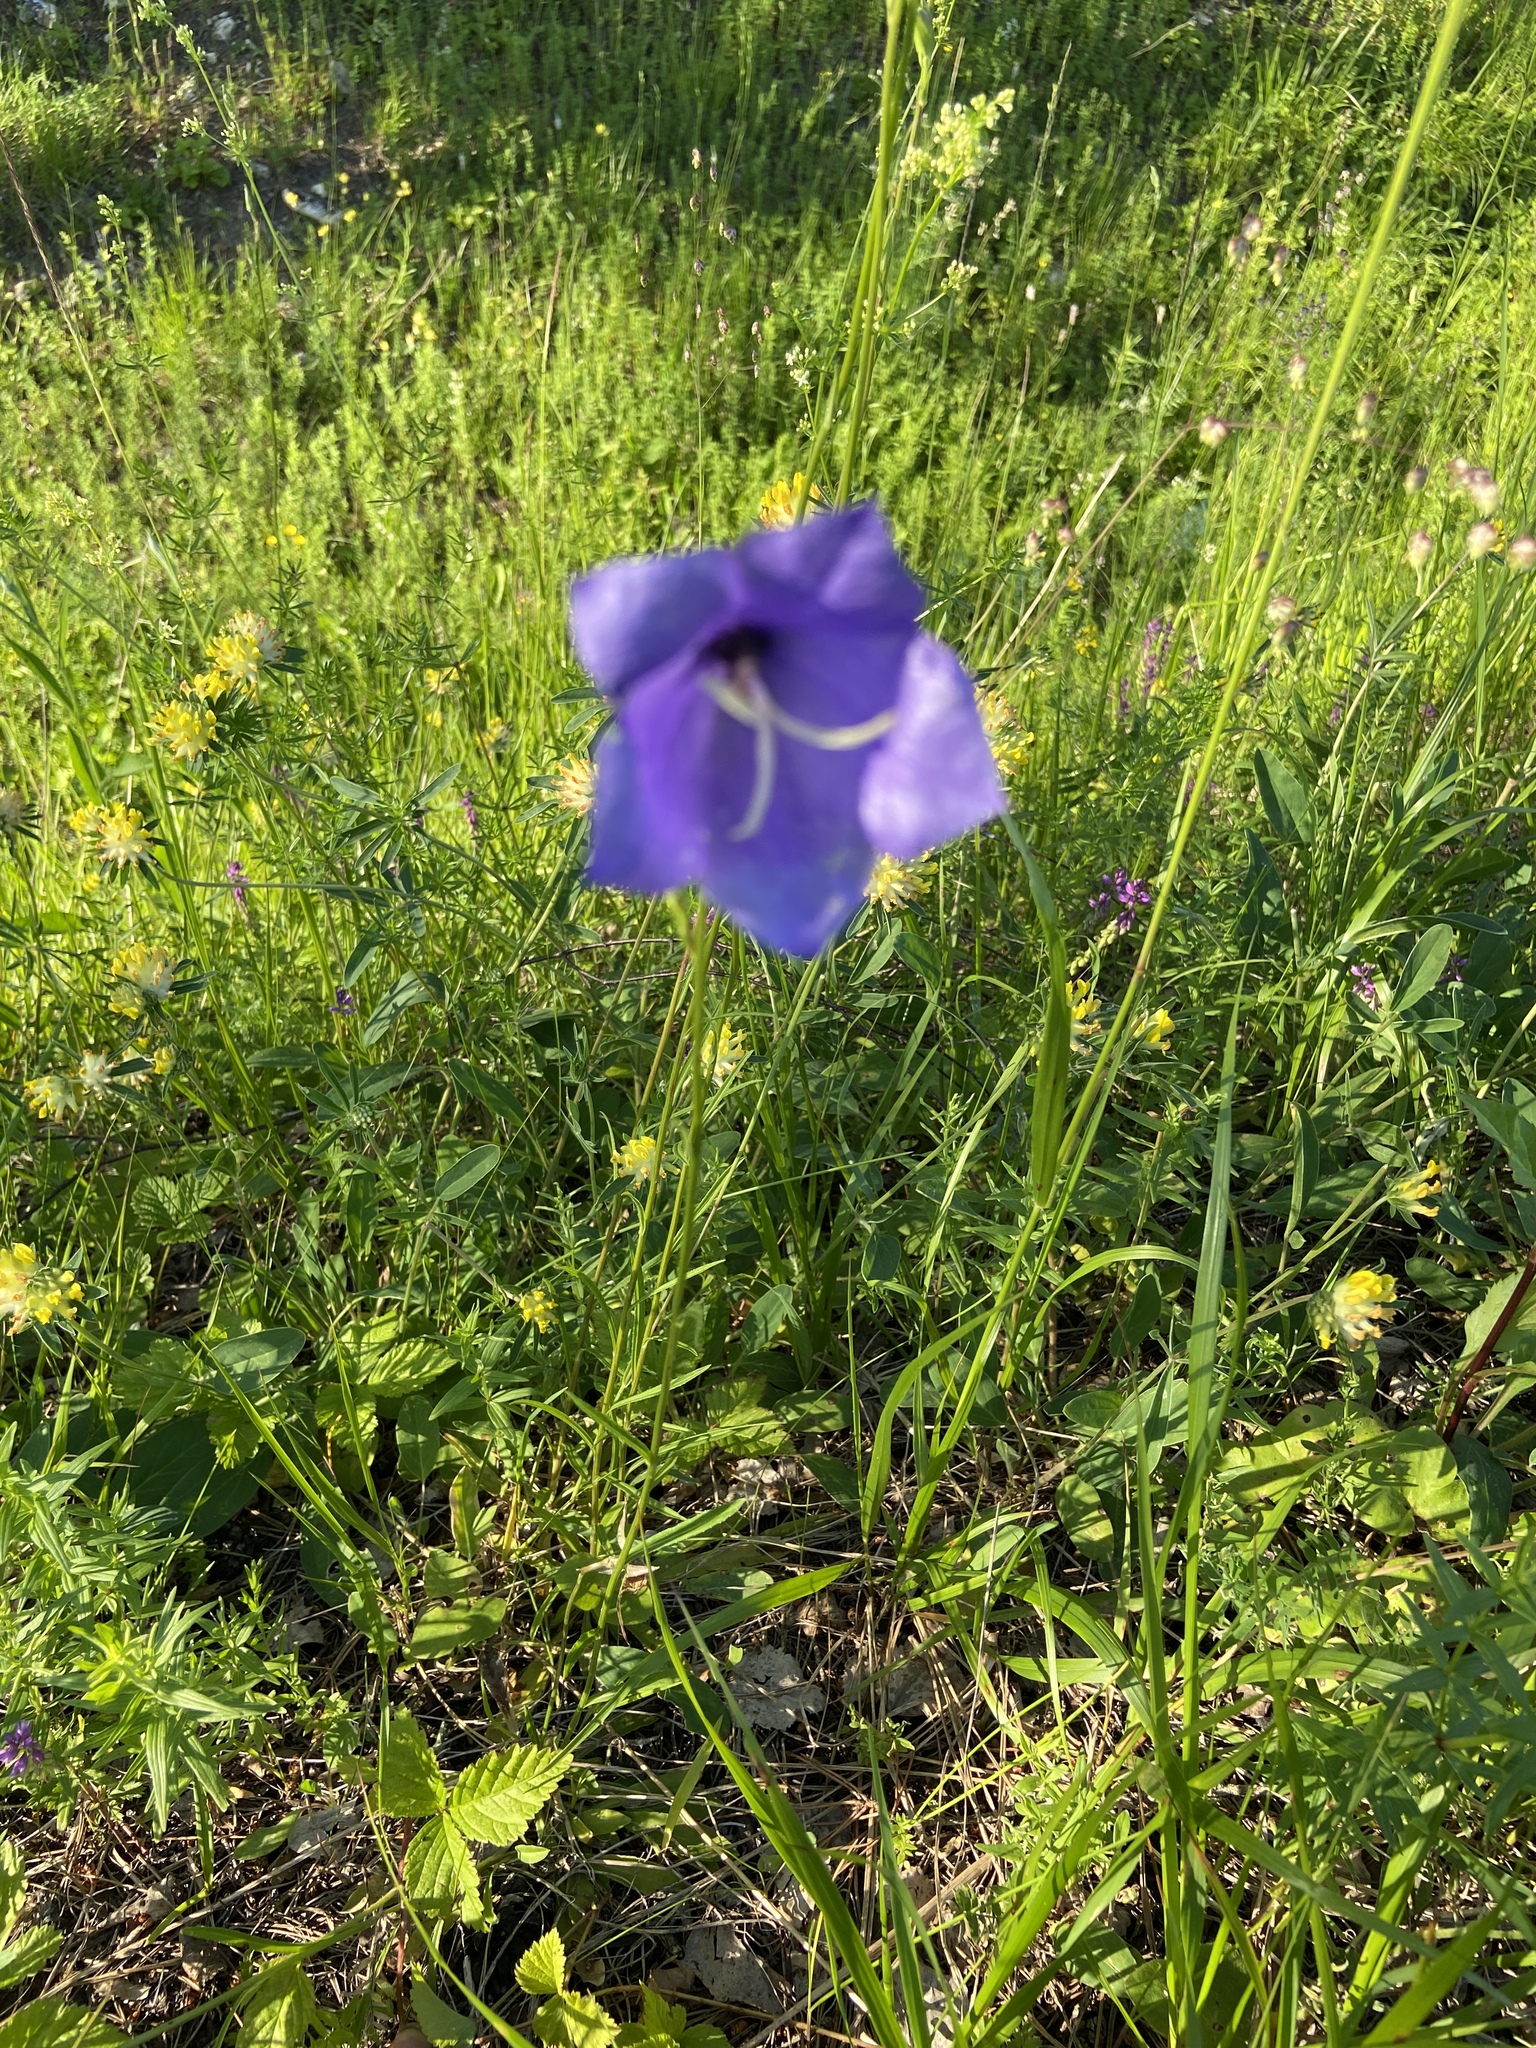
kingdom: Plantae
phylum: Tracheophyta
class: Magnoliopsida
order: Asterales
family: Campanulaceae
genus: Campanula
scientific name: Campanula persicifolia
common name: Peach-leaved bellflower
